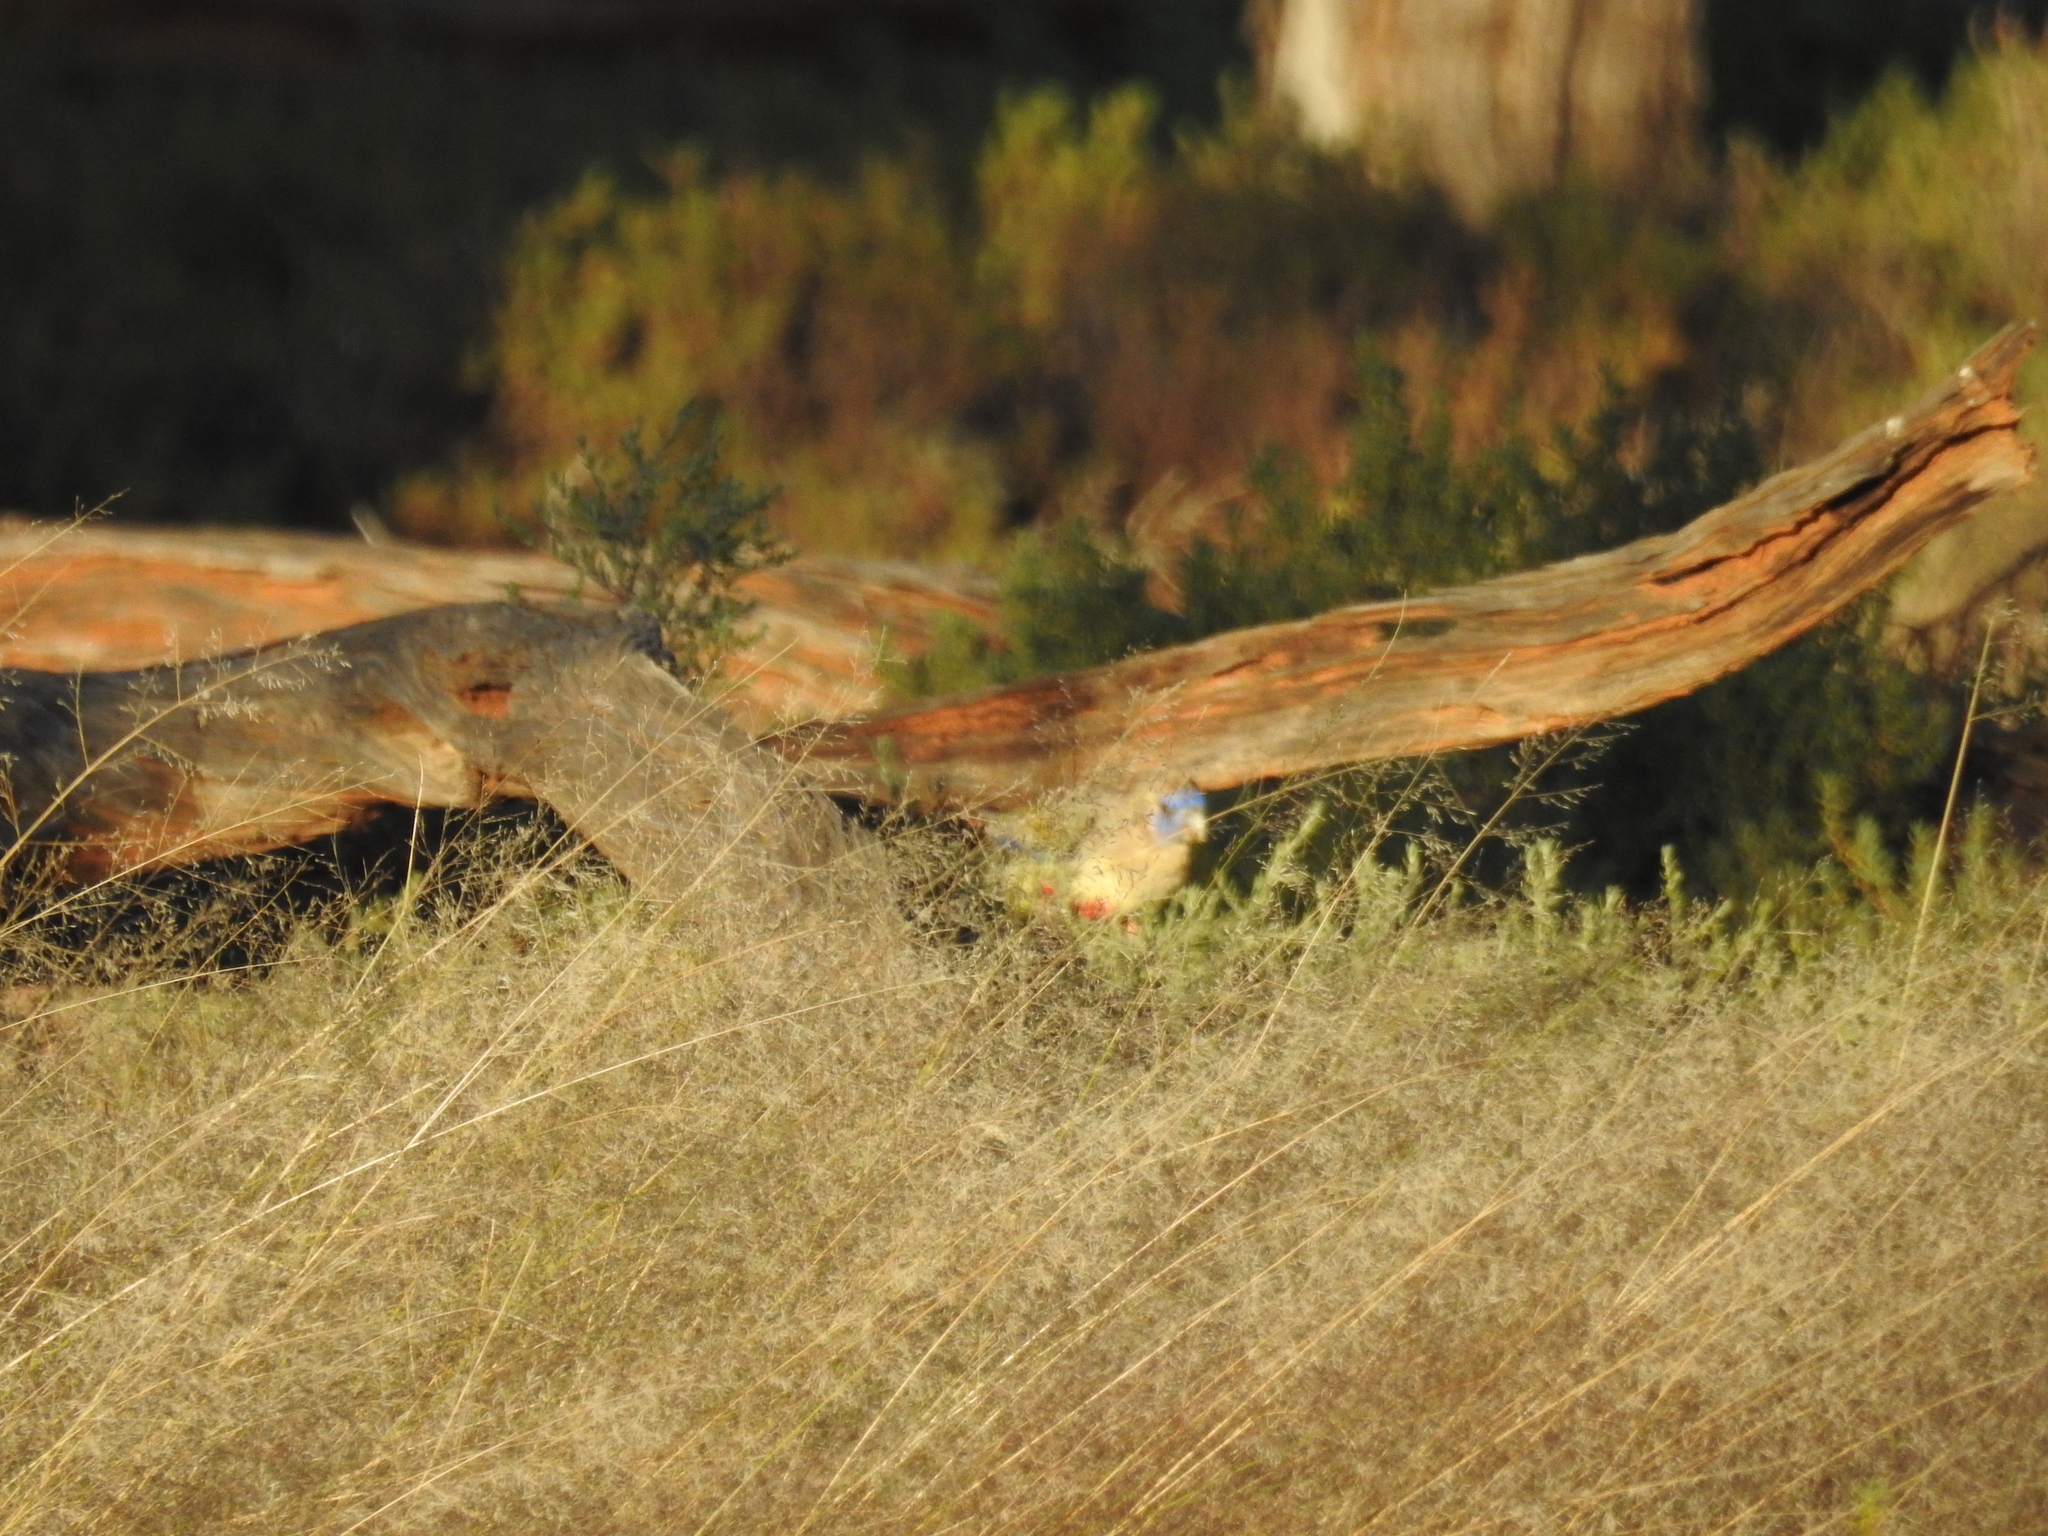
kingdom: Animalia
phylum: Chordata
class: Aves
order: Psittaciformes
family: Psittacidae
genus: Northiella
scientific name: Northiella haematogaster
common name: Bluebonnet
